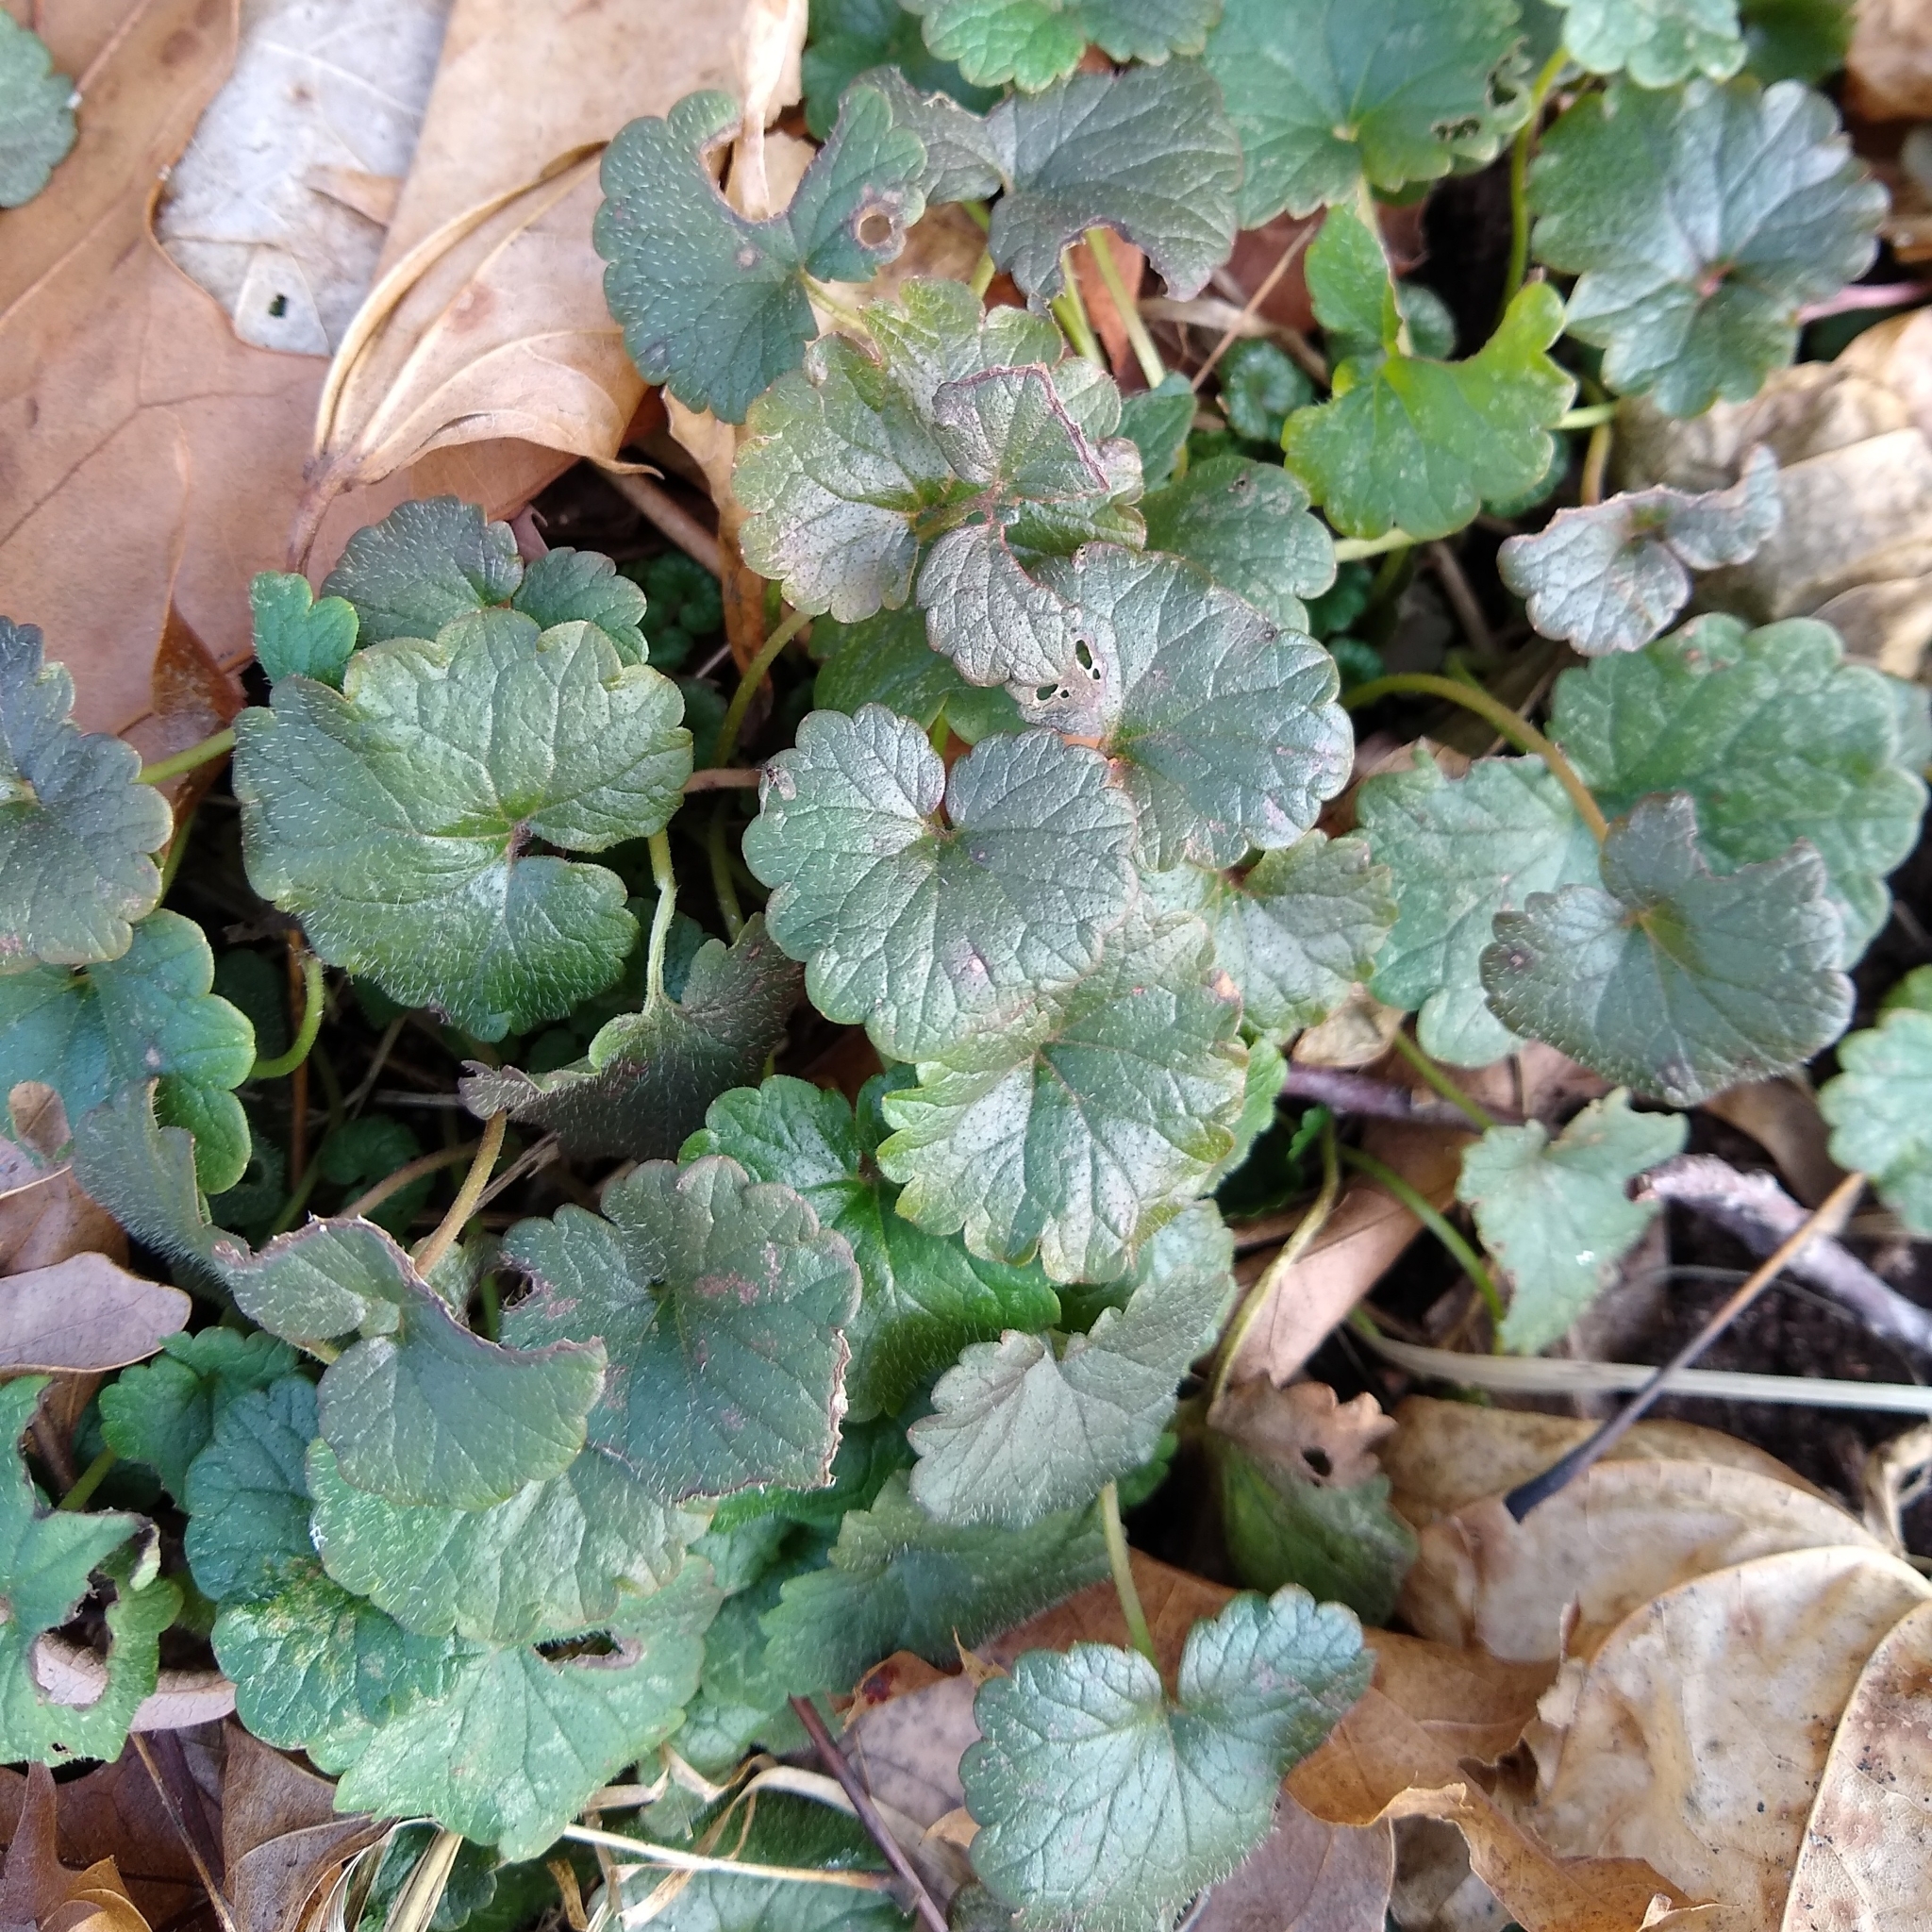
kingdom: Plantae
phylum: Tracheophyta
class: Magnoliopsida
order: Lamiales
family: Lamiaceae
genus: Glechoma
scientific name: Glechoma hederacea
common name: Ground ivy
